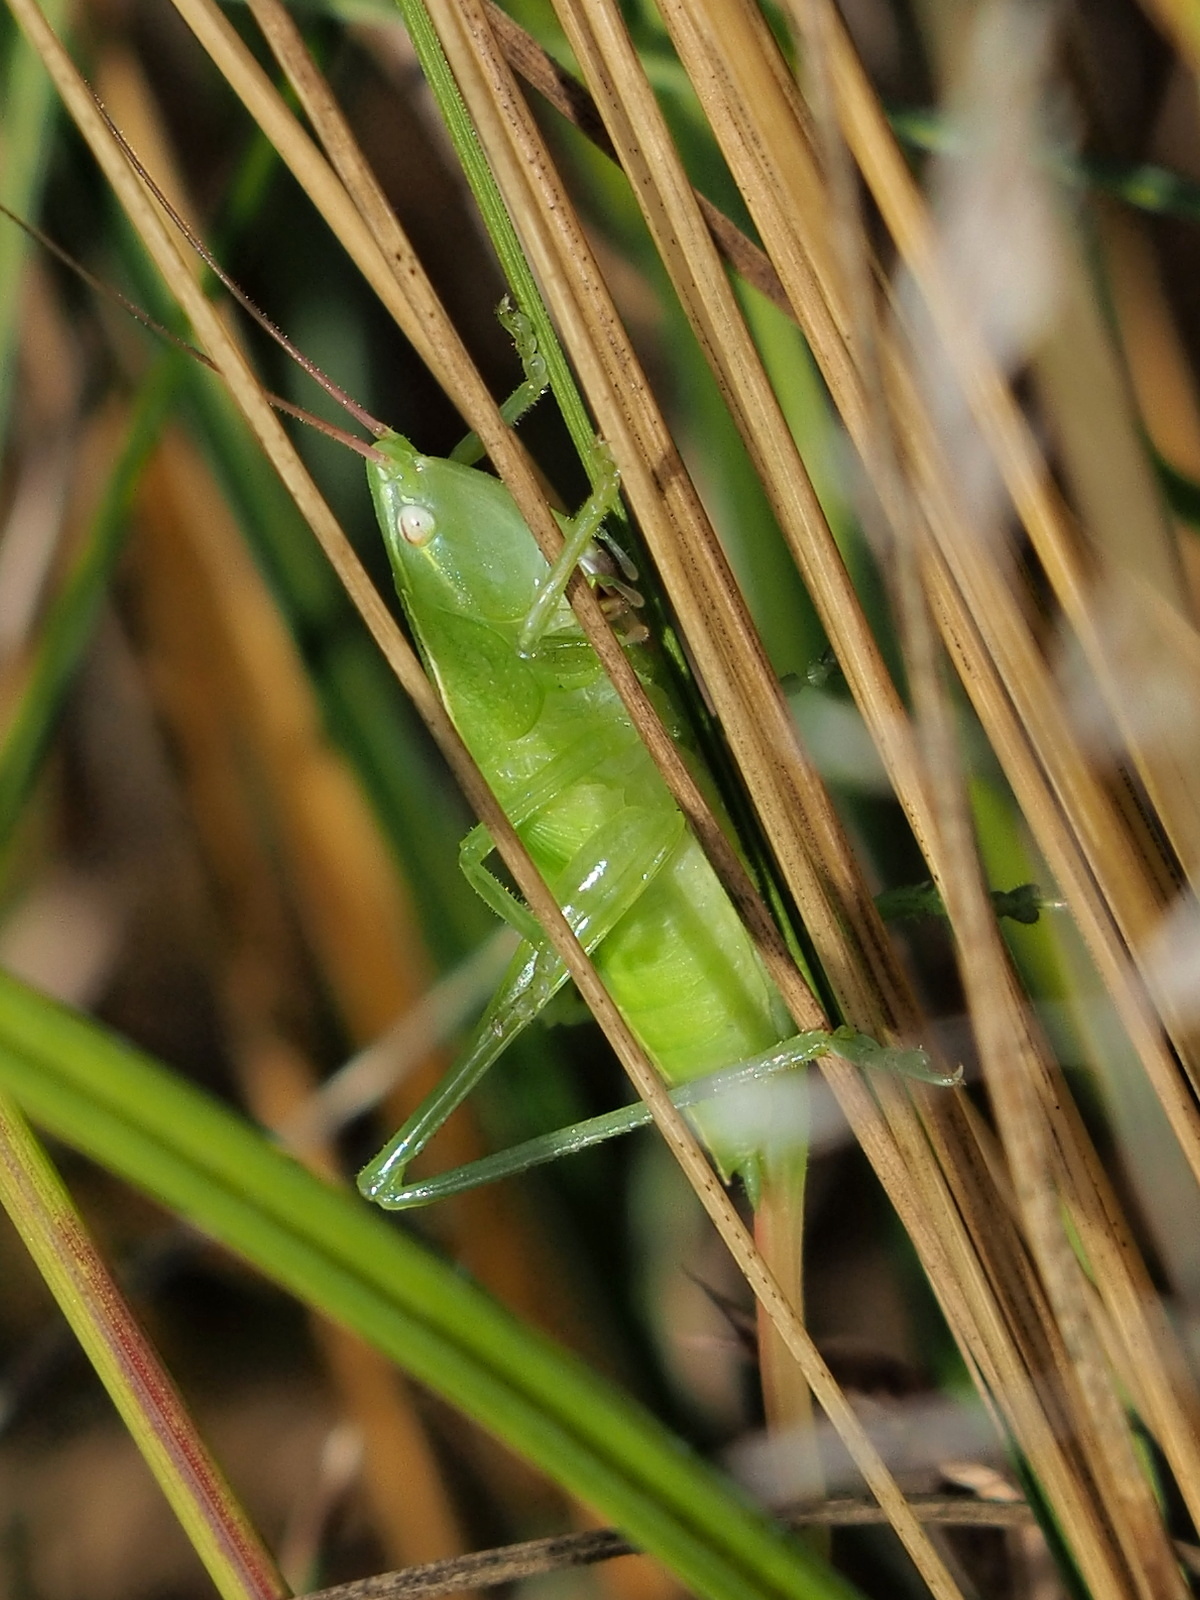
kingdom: Animalia
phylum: Arthropoda
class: Insecta
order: Orthoptera
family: Tettigoniidae
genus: Ruspolia
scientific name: Ruspolia nitidula
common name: Large conehead
